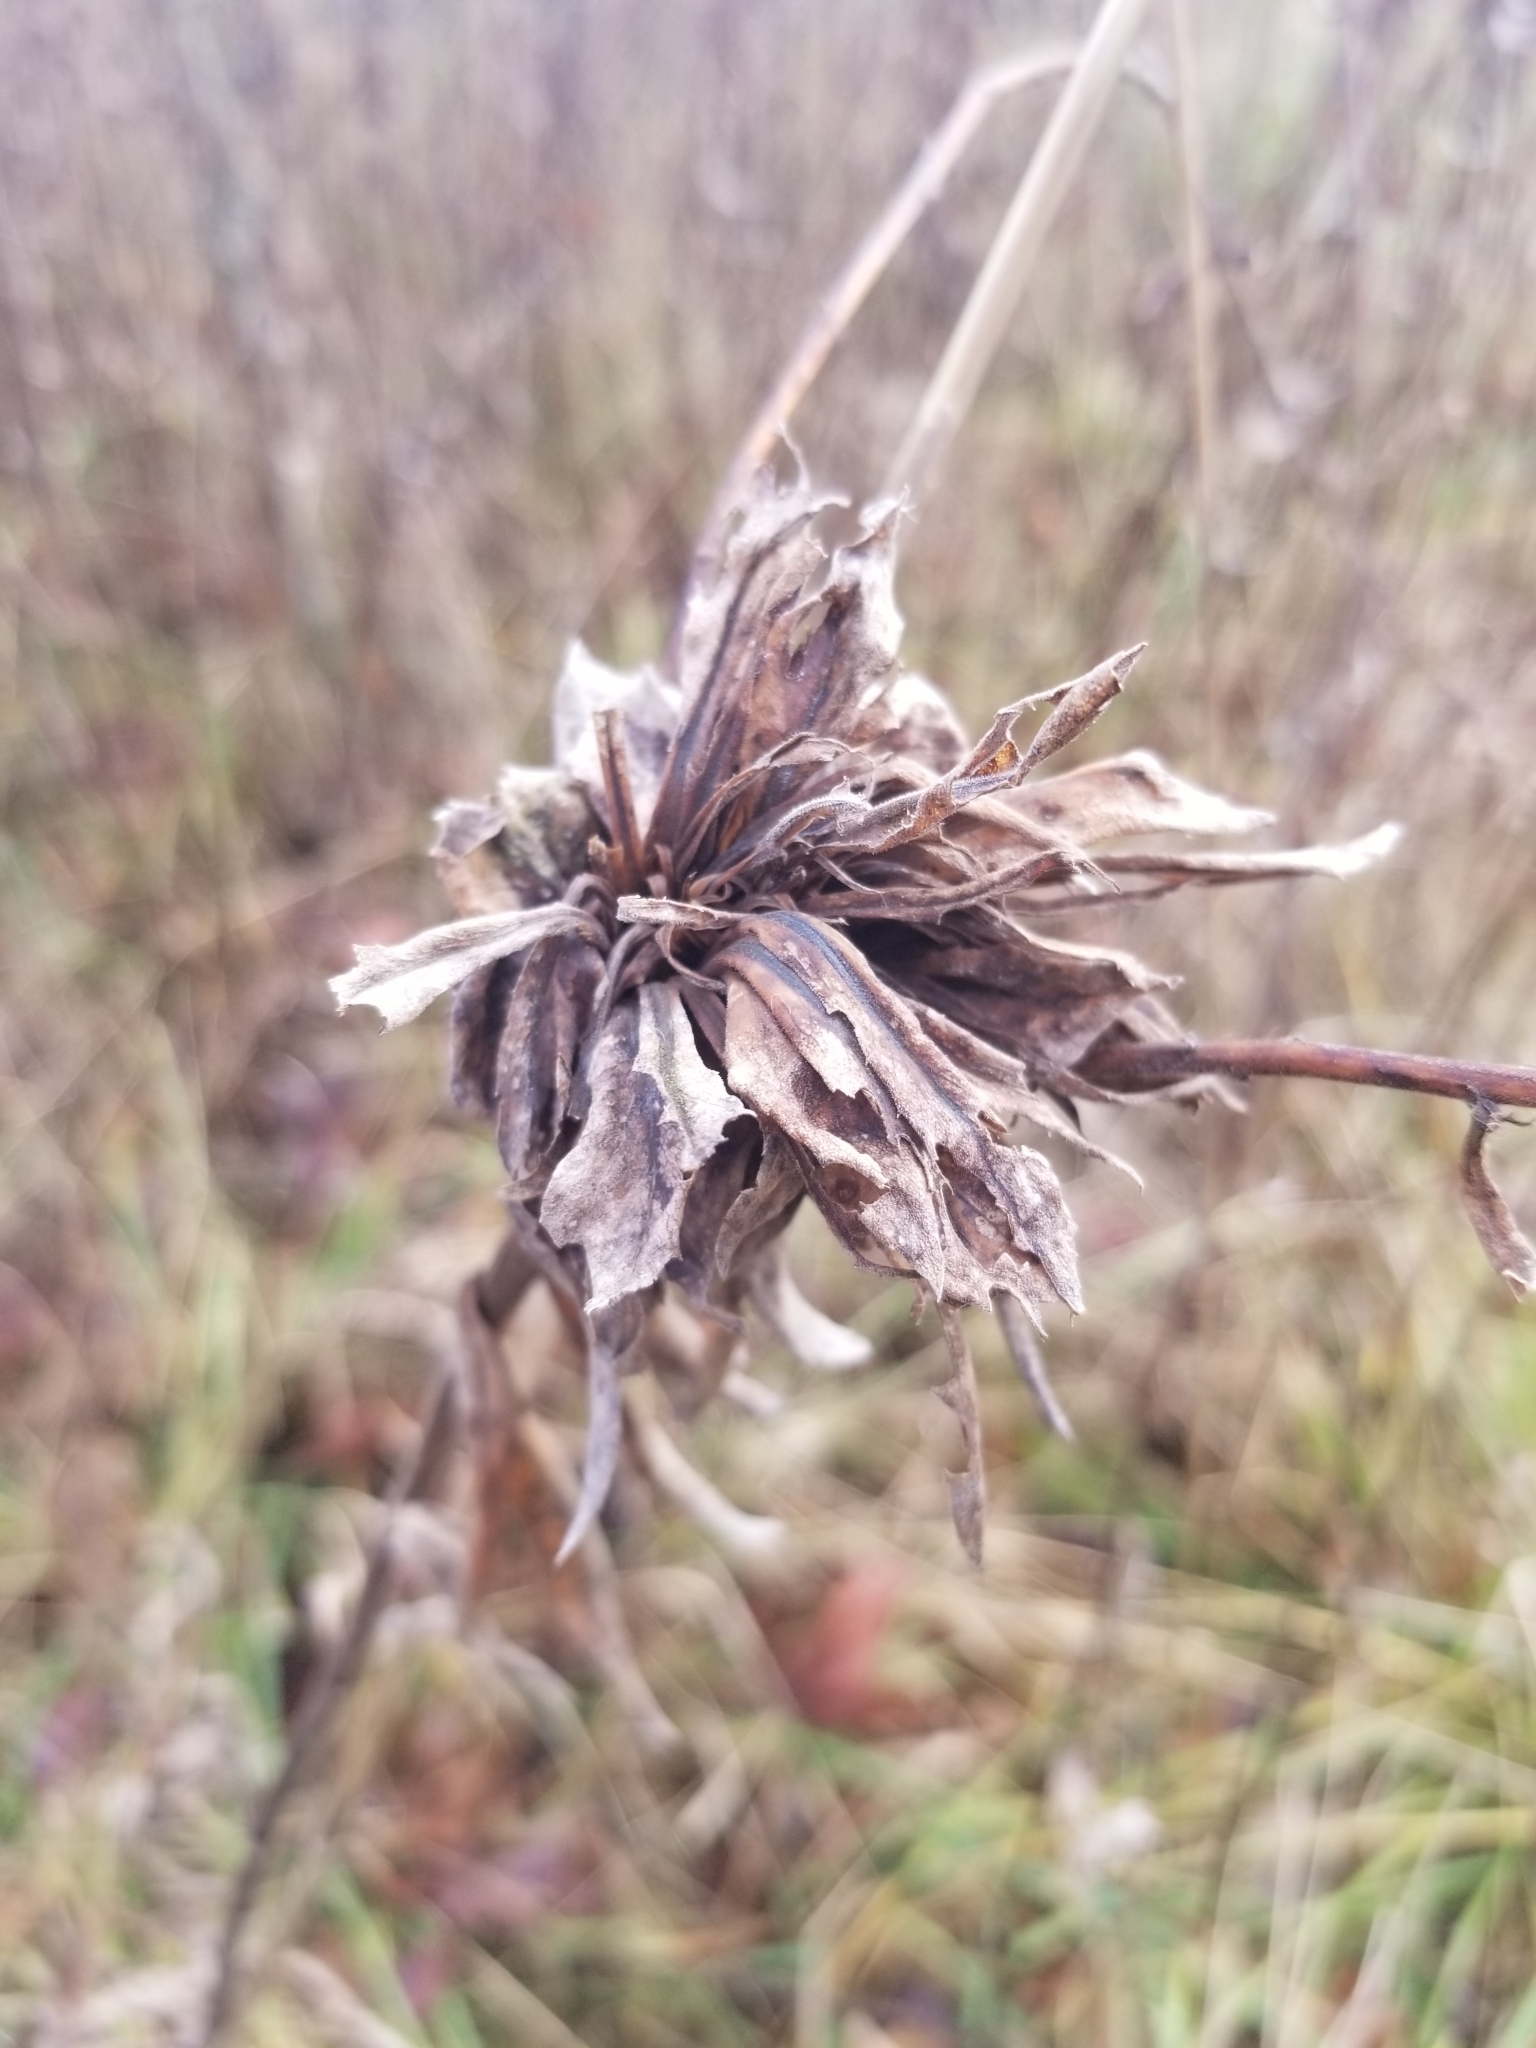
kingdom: Animalia
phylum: Arthropoda
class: Insecta
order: Diptera
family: Cecidomyiidae
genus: Rhopalomyia
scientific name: Rhopalomyia solidaginis
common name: Goldenrod bunch gall midge
